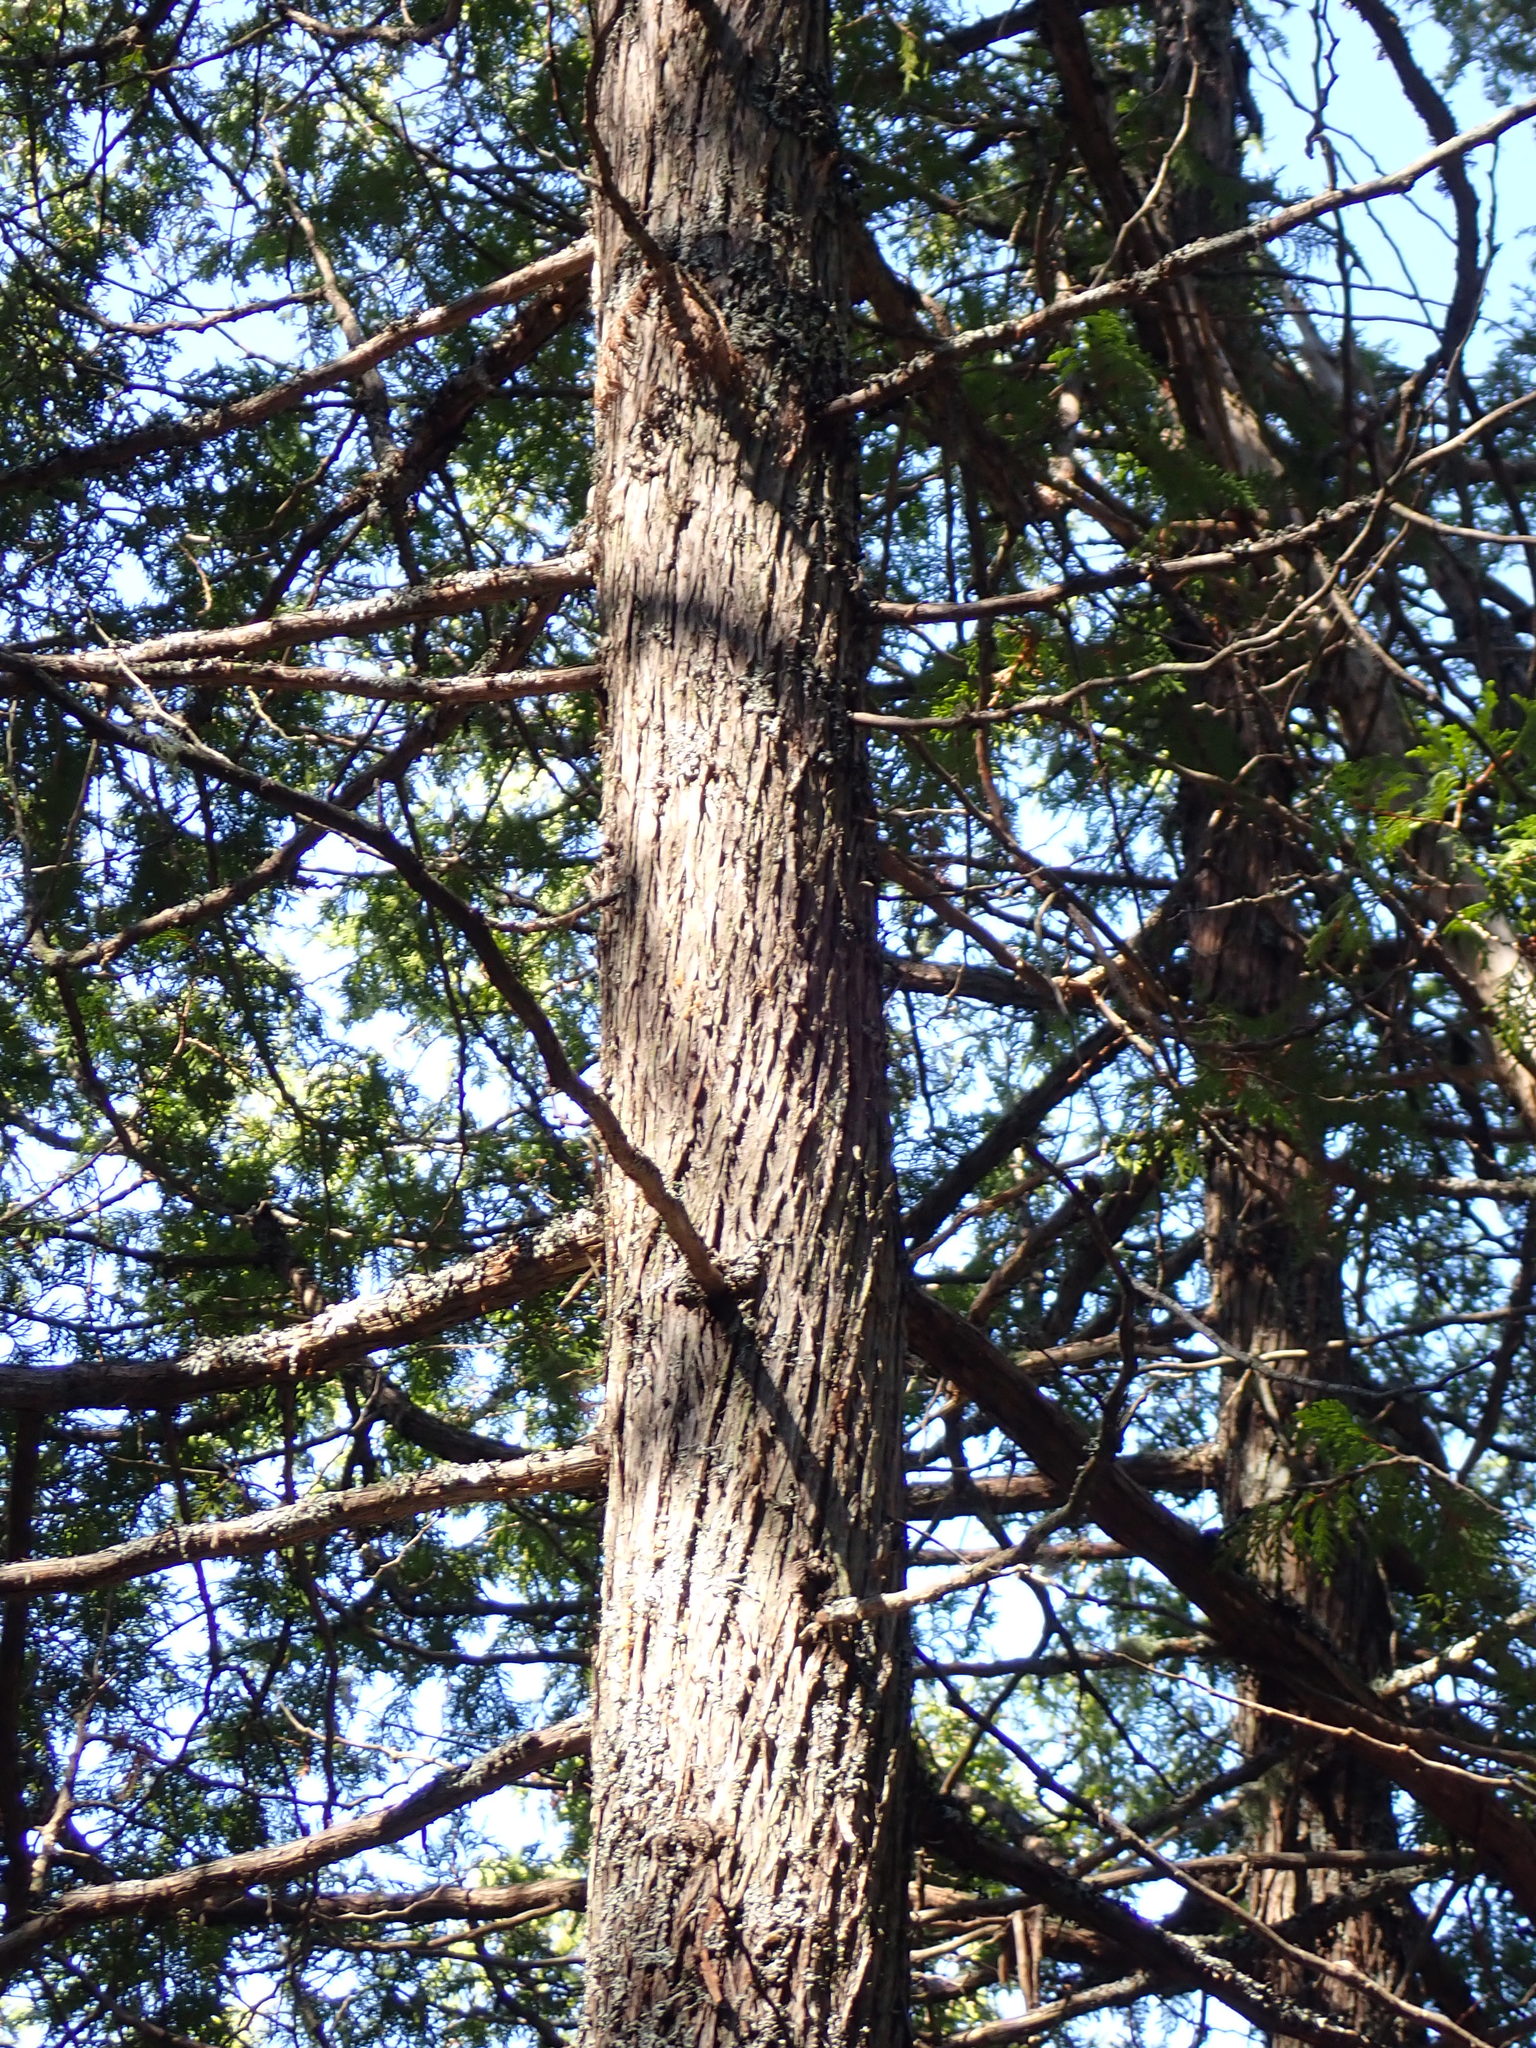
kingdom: Plantae
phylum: Tracheophyta
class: Pinopsida
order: Pinales
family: Cupressaceae
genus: Thuja
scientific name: Thuja occidentalis
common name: Northern white-cedar
